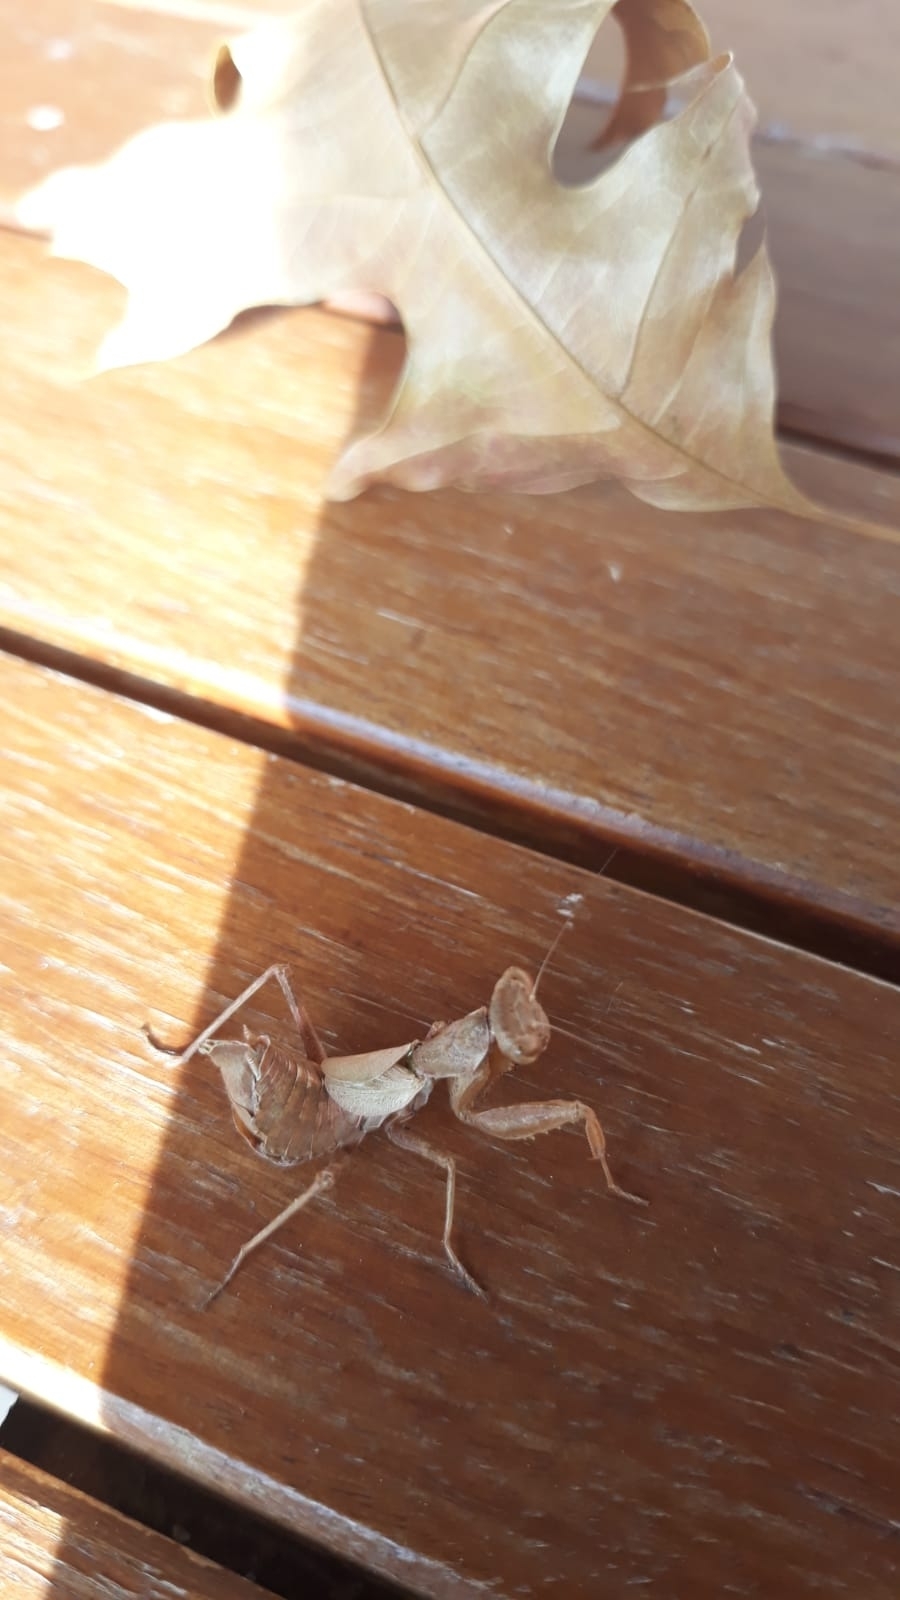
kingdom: Animalia
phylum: Arthropoda
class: Insecta
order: Mantodea
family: Amelidae
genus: Ameles
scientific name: Ameles spallanzania
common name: European dwarf mantis
